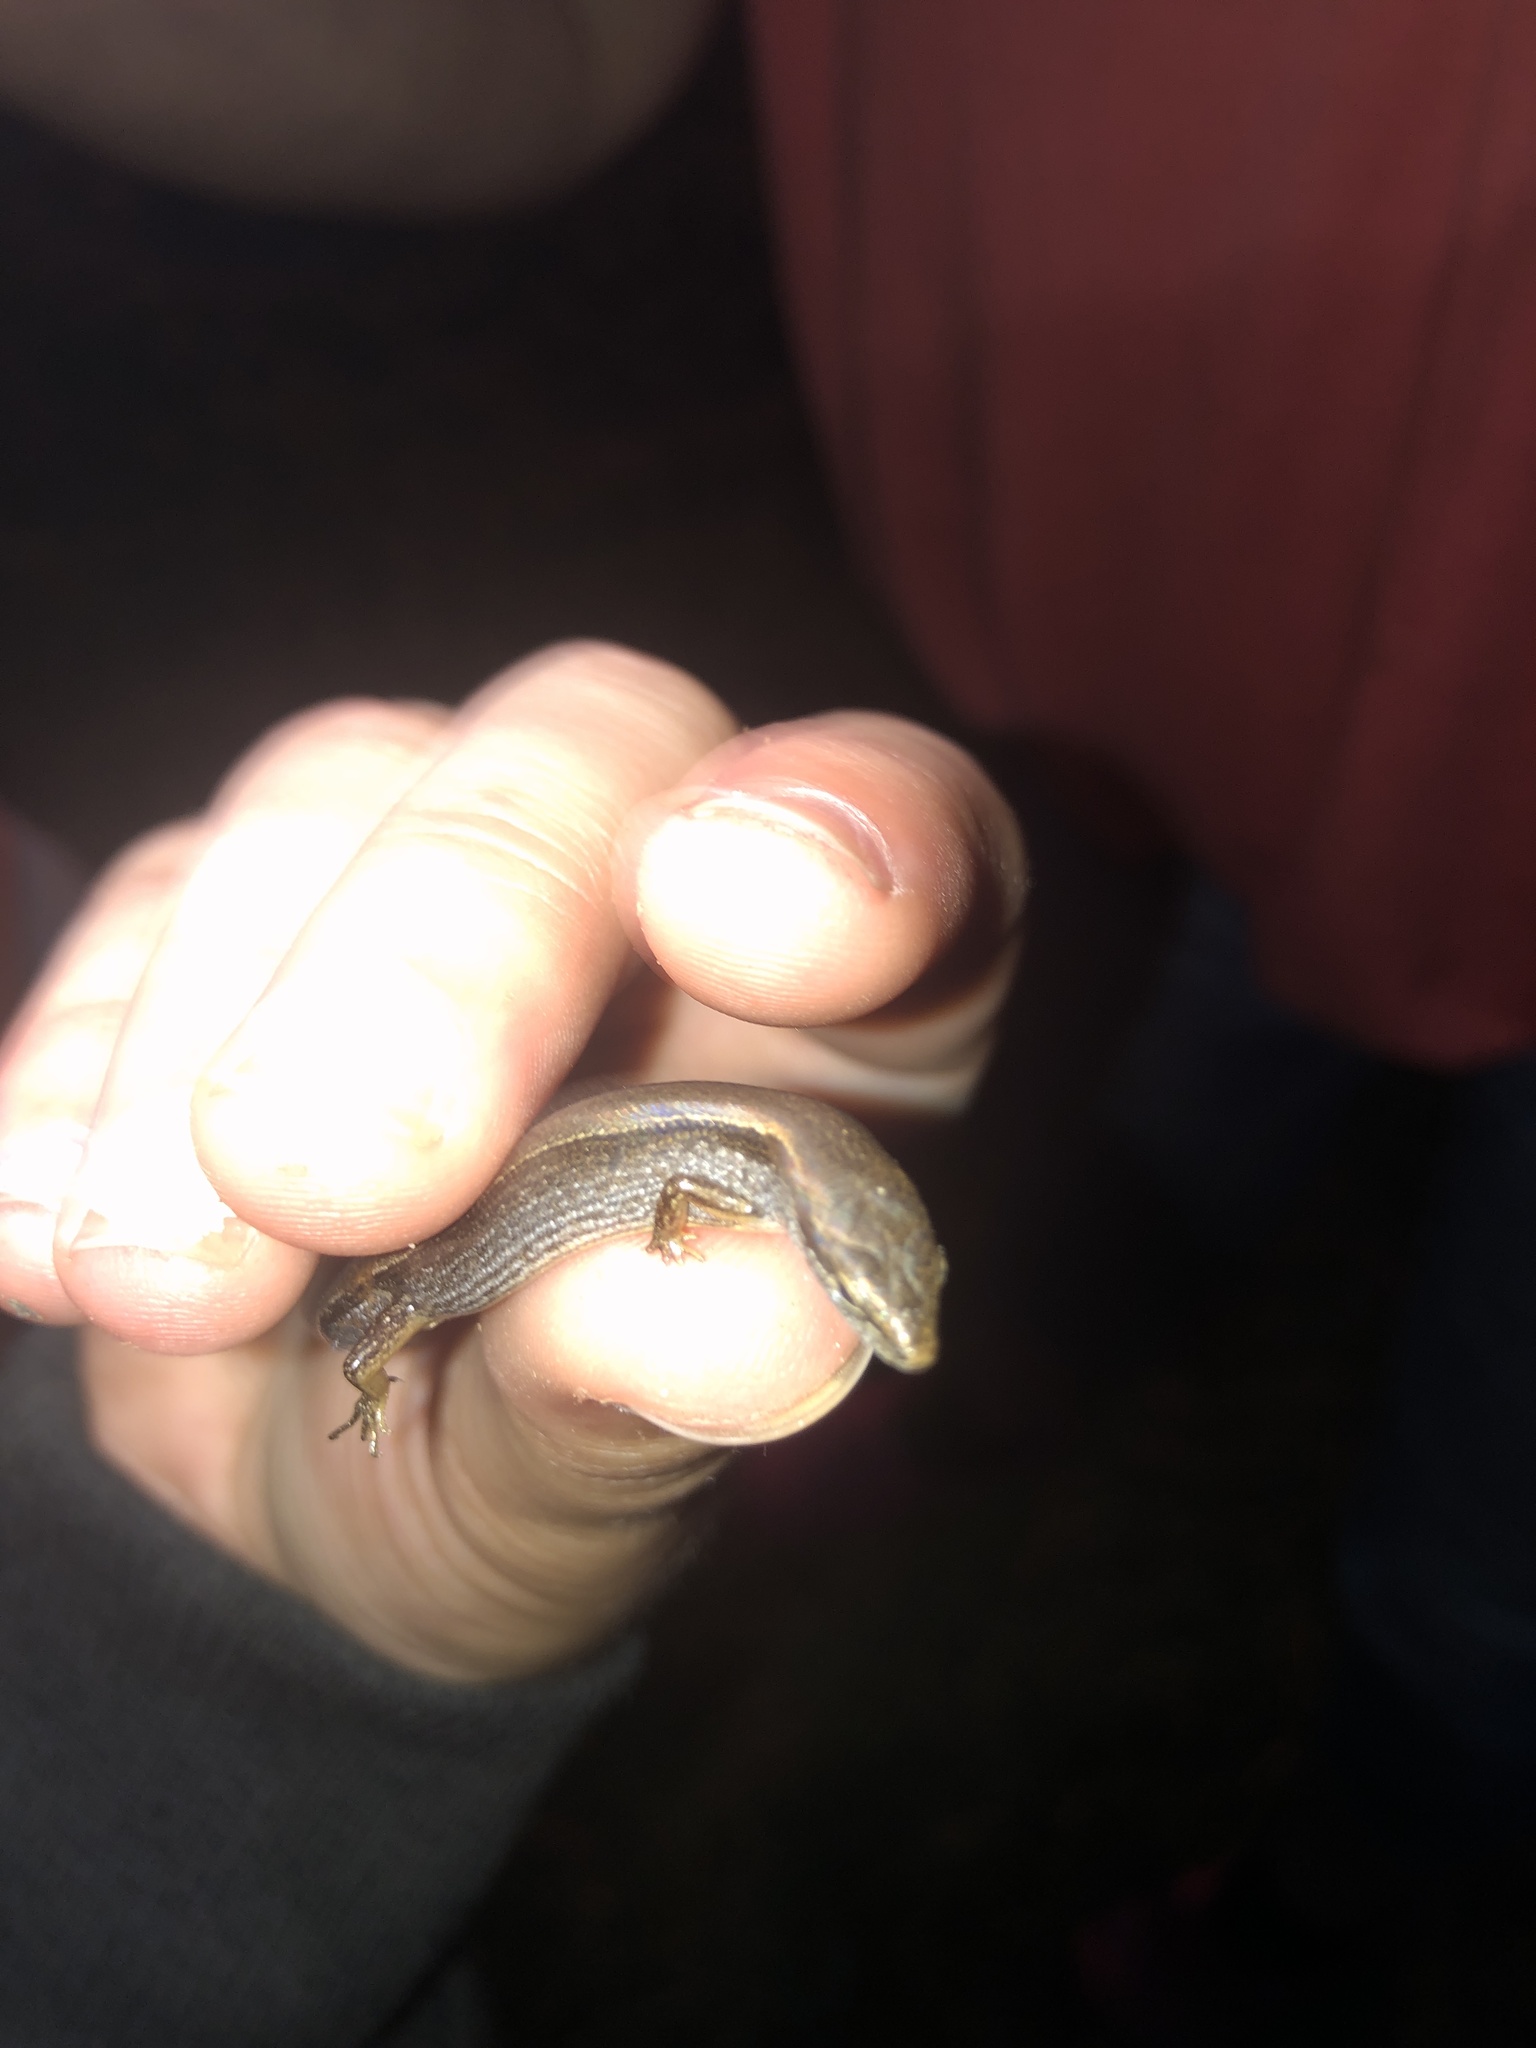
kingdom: Animalia
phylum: Chordata
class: Squamata
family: Scincidae
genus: Scincella
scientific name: Scincella lateralis
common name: Ground skink
